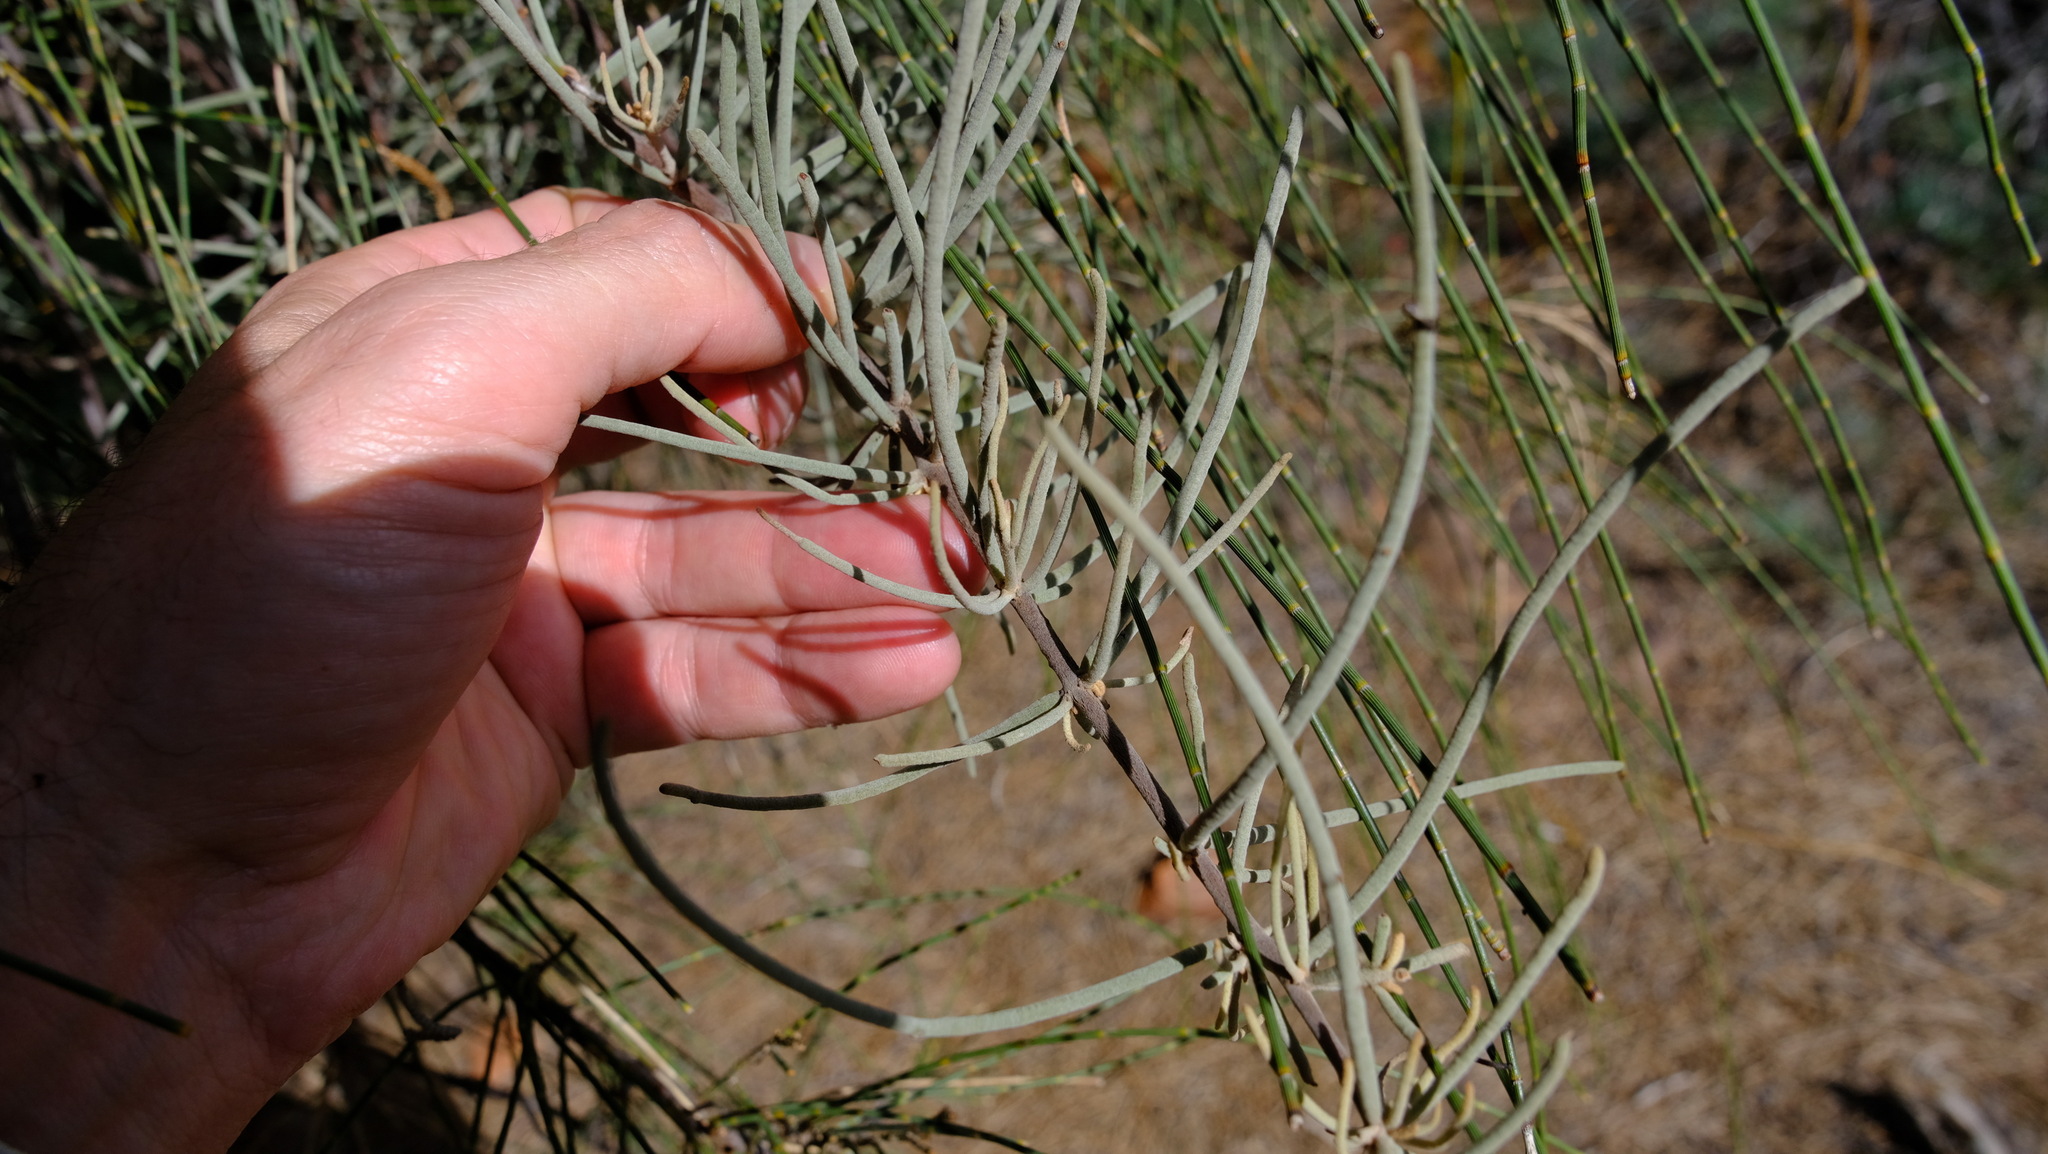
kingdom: Plantae
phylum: Tracheophyta
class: Magnoliopsida
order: Santalales
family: Loranthaceae
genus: Amyema
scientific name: Amyema linophylla
